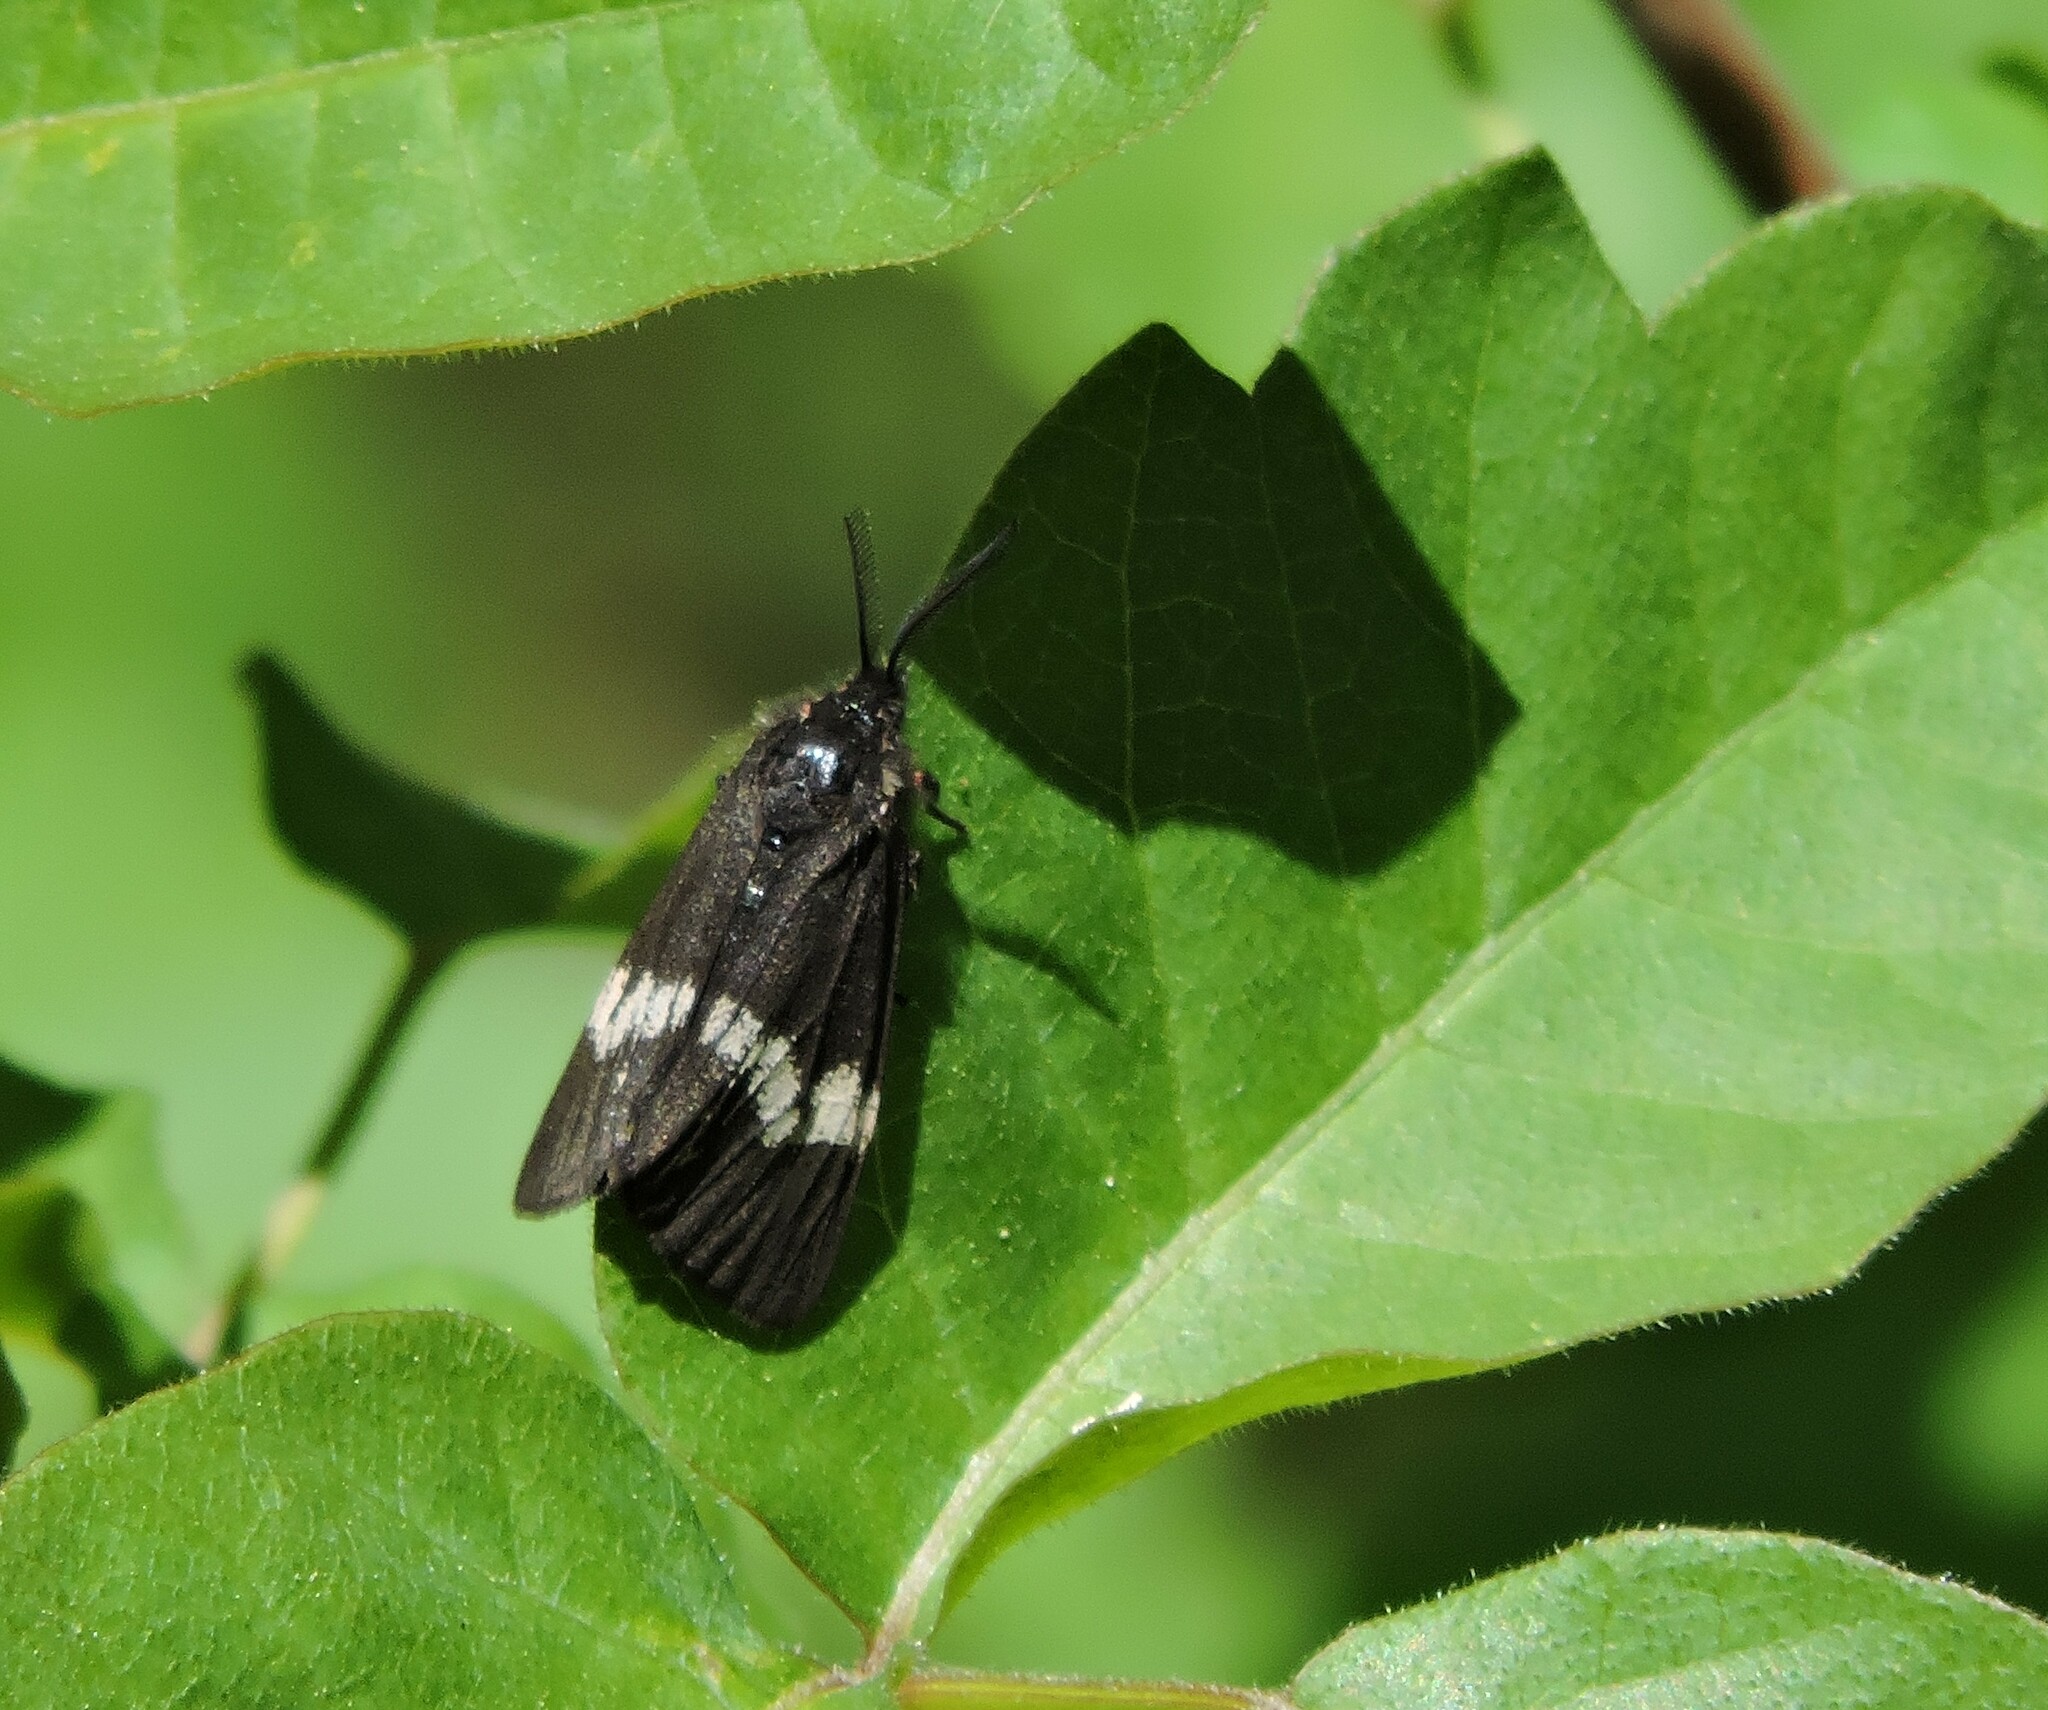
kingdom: Animalia
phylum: Arthropoda
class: Insecta
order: Lepidoptera
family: Erebidae
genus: Leptarctia
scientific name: Leptarctia californiae
